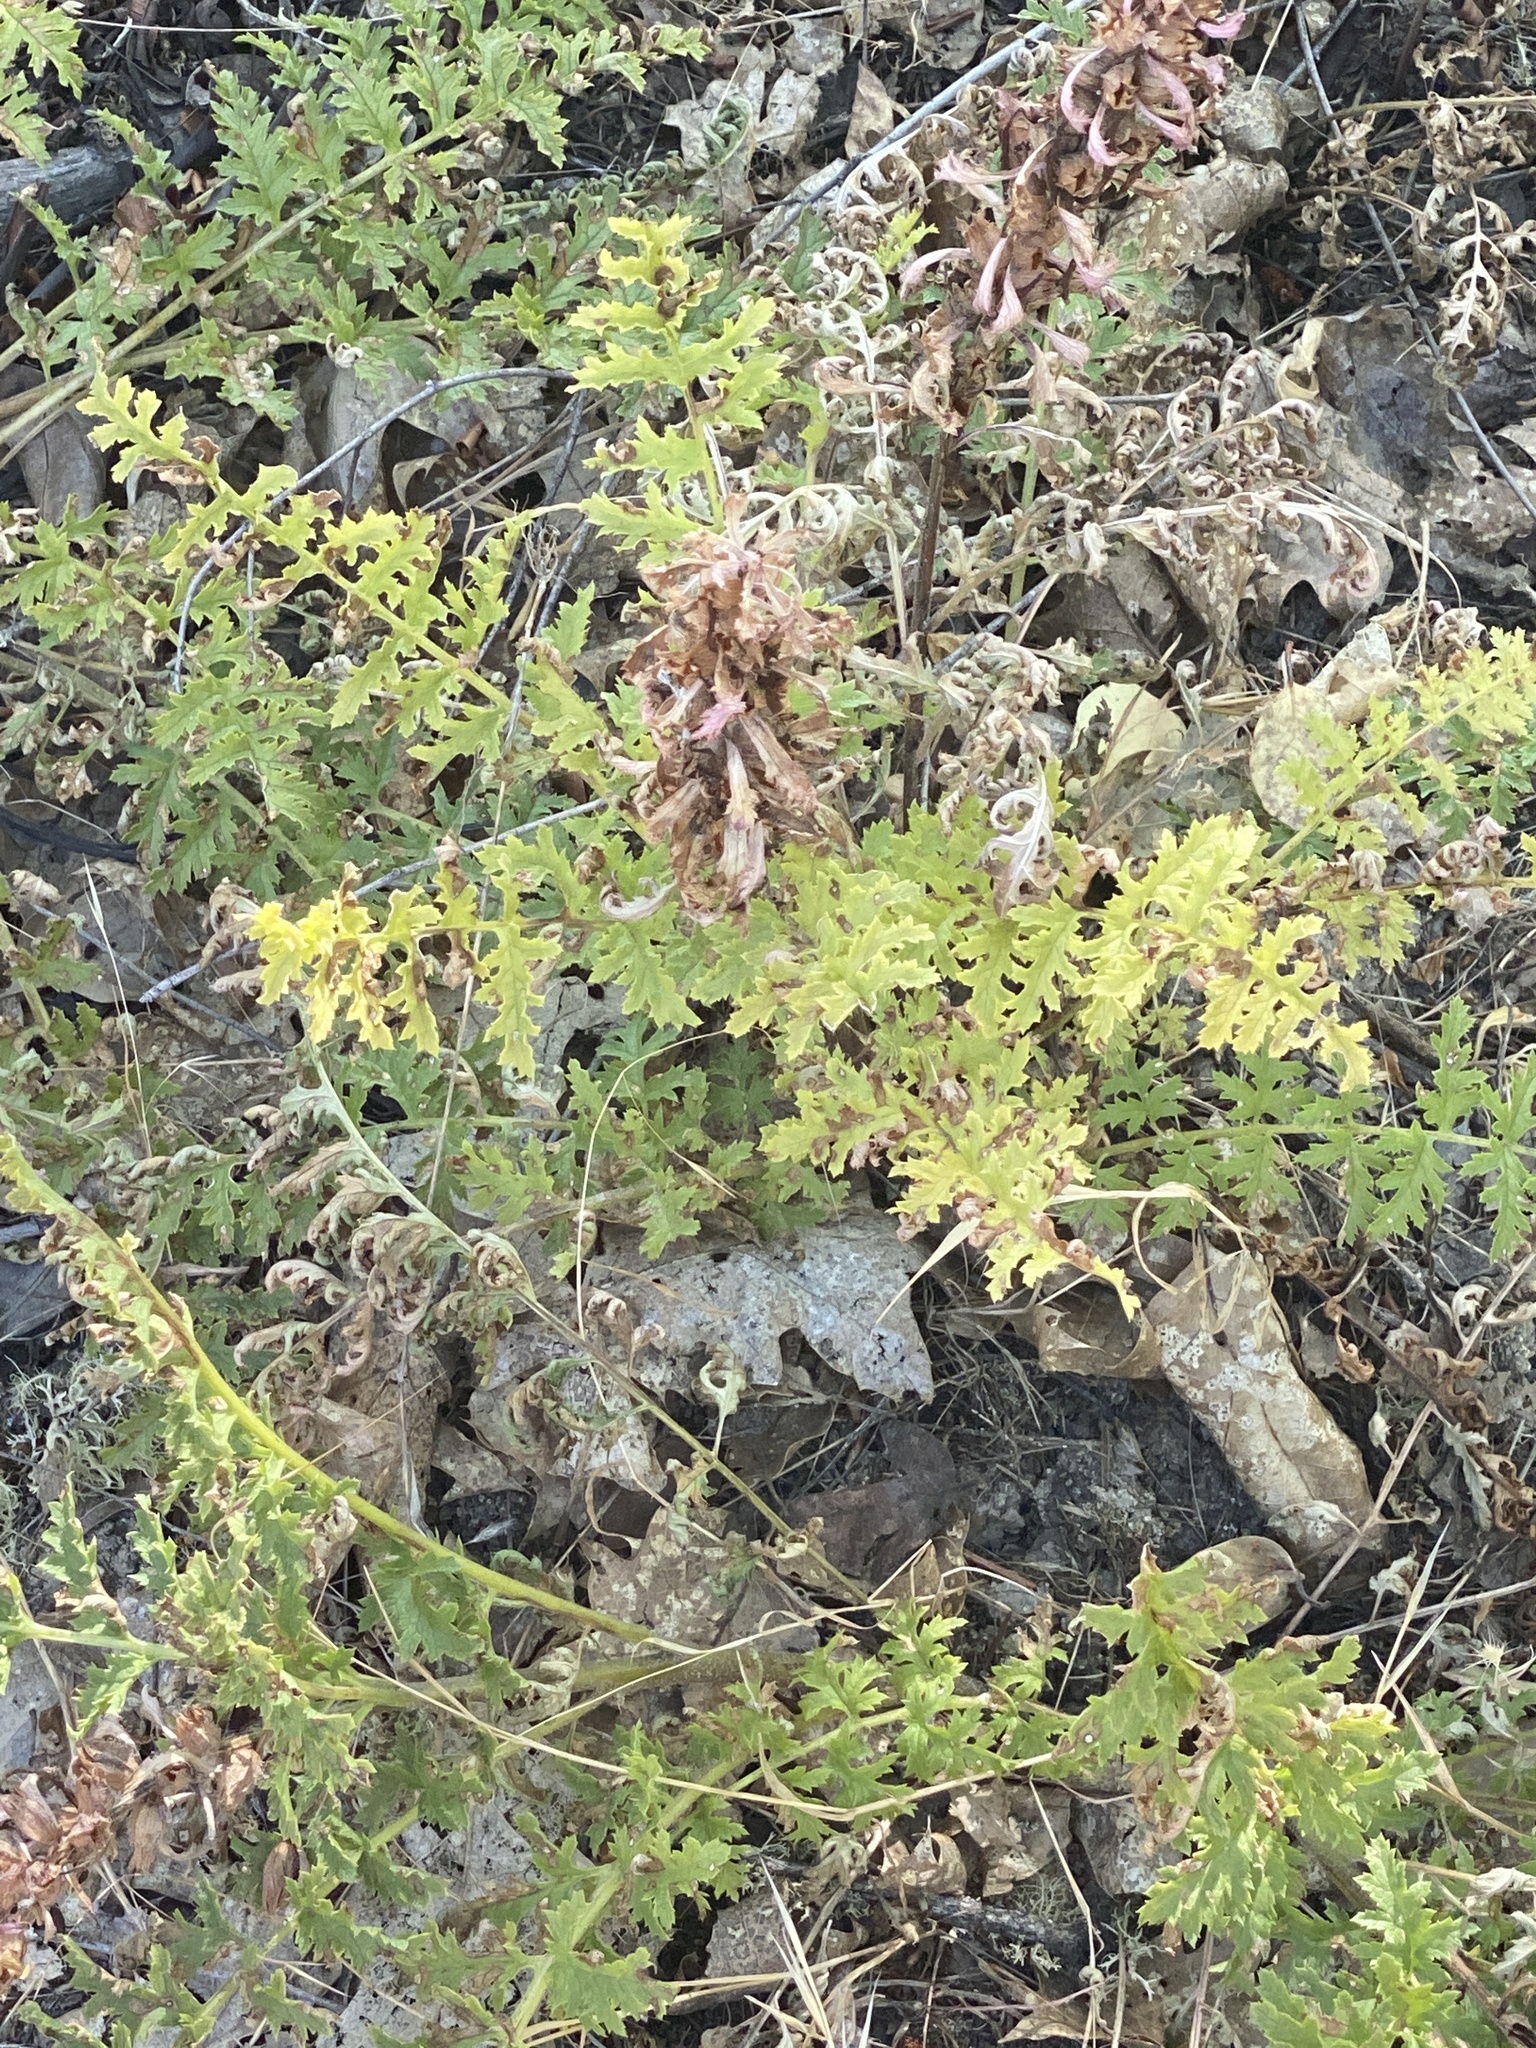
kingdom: Plantae
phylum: Tracheophyta
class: Magnoliopsida
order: Lamiales
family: Orobanchaceae
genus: Pedicularis
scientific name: Pedicularis densiflora
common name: Indian warrior
